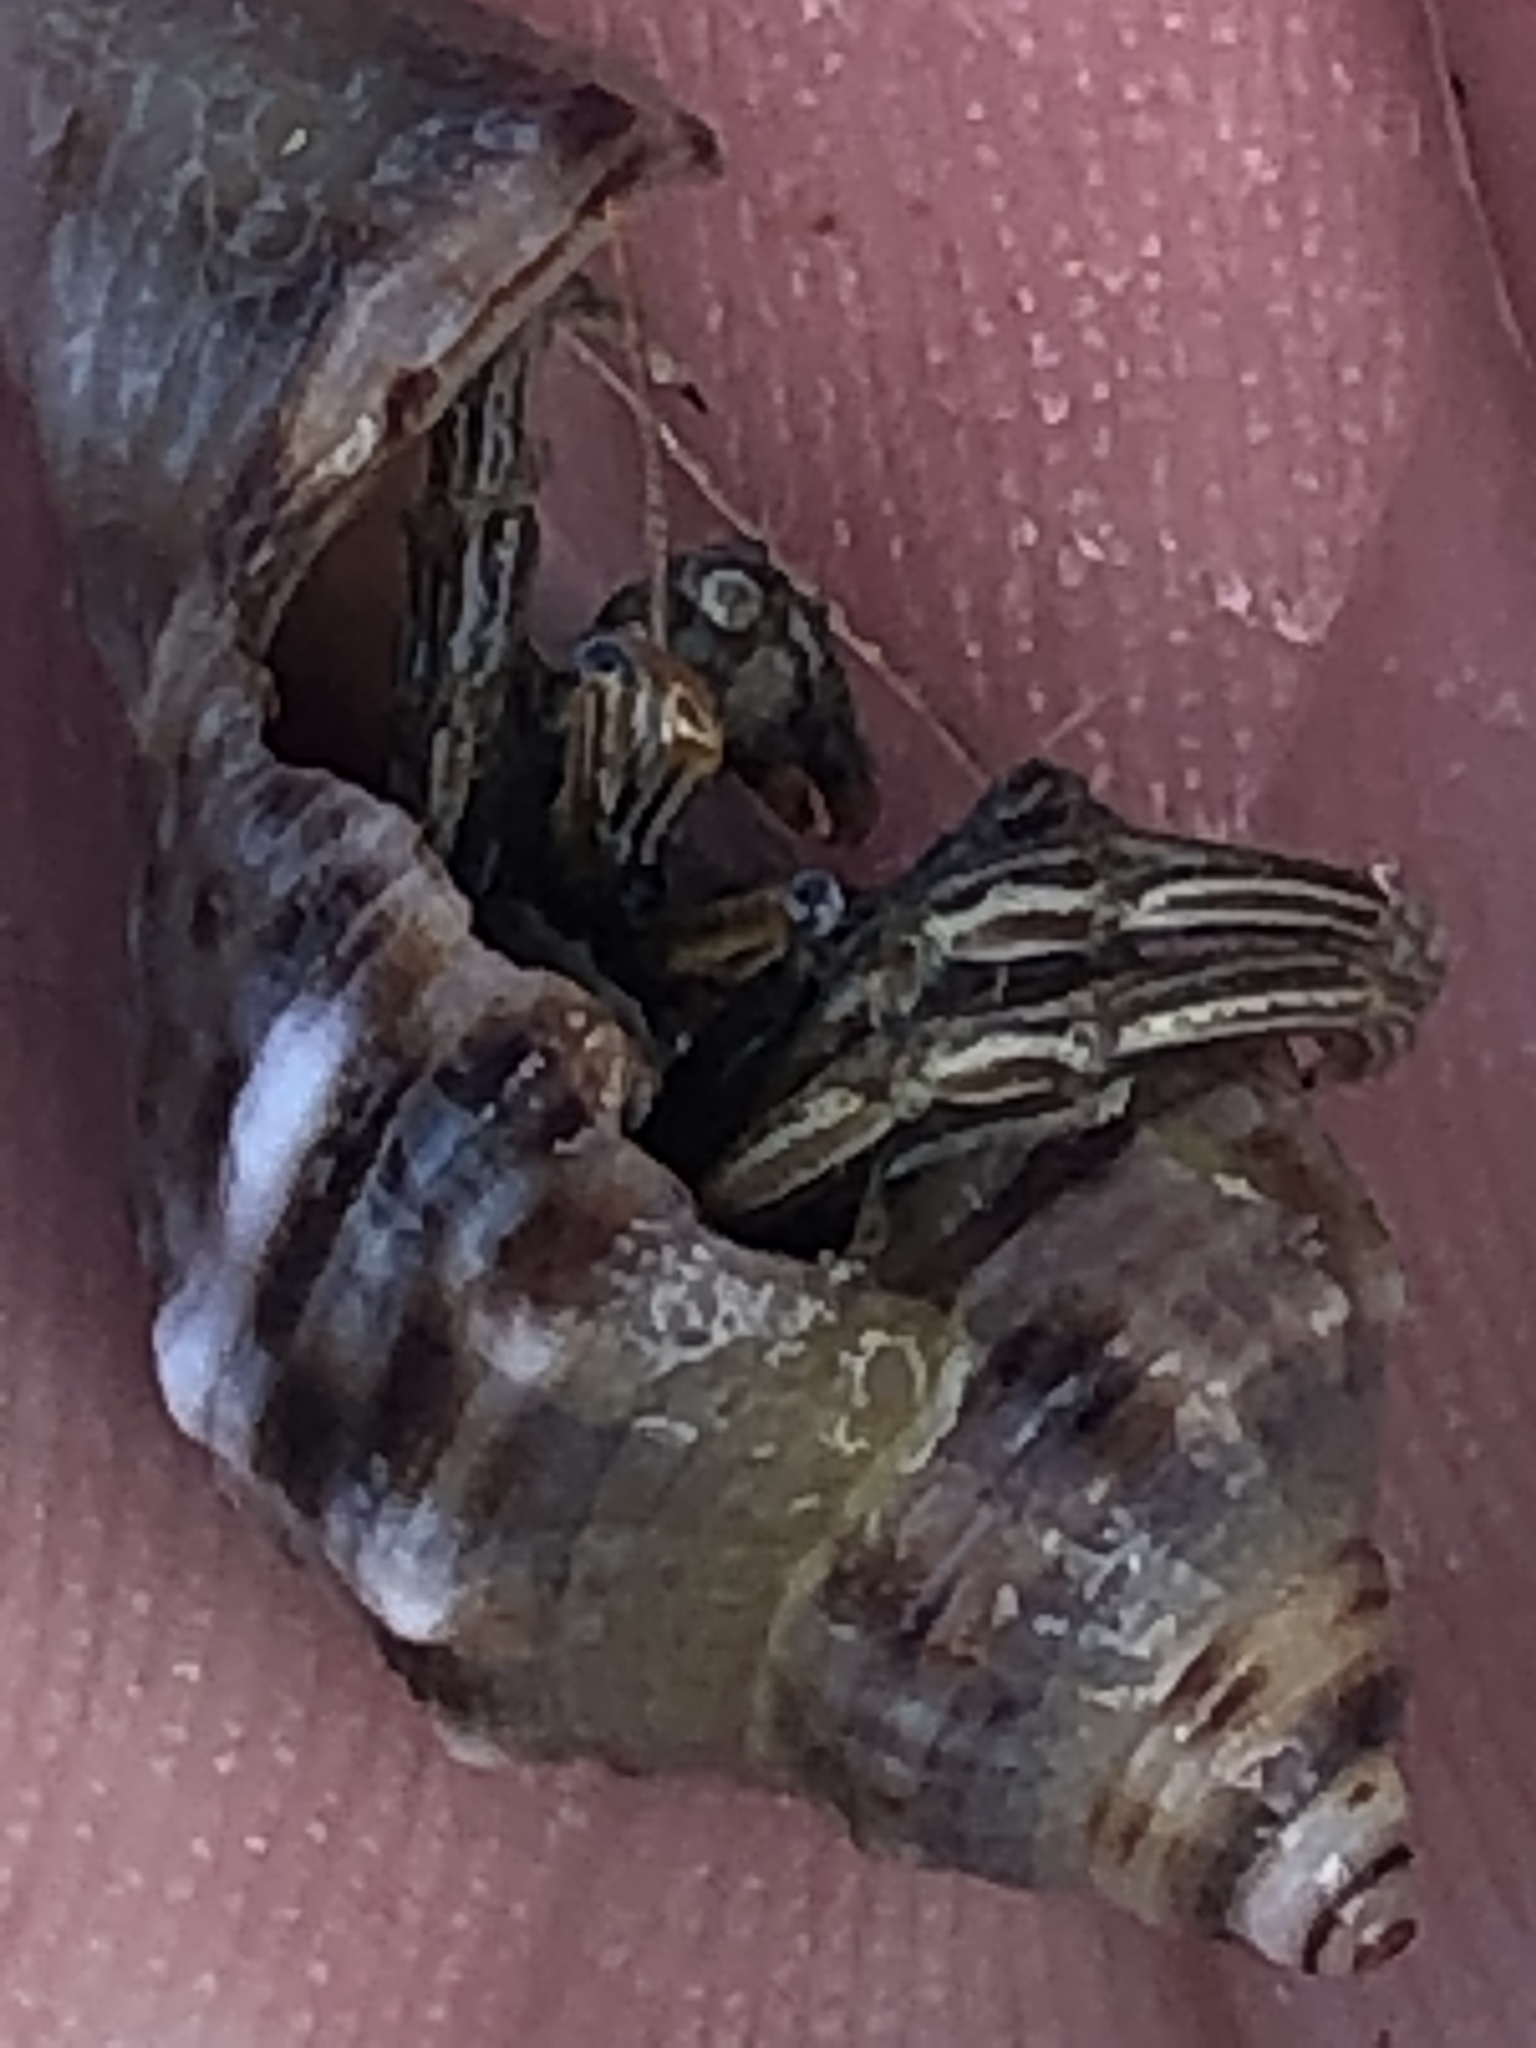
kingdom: Animalia
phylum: Arthropoda
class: Malacostraca
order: Decapoda
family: Diogenidae
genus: Clibanarius
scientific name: Clibanarius vittatus
